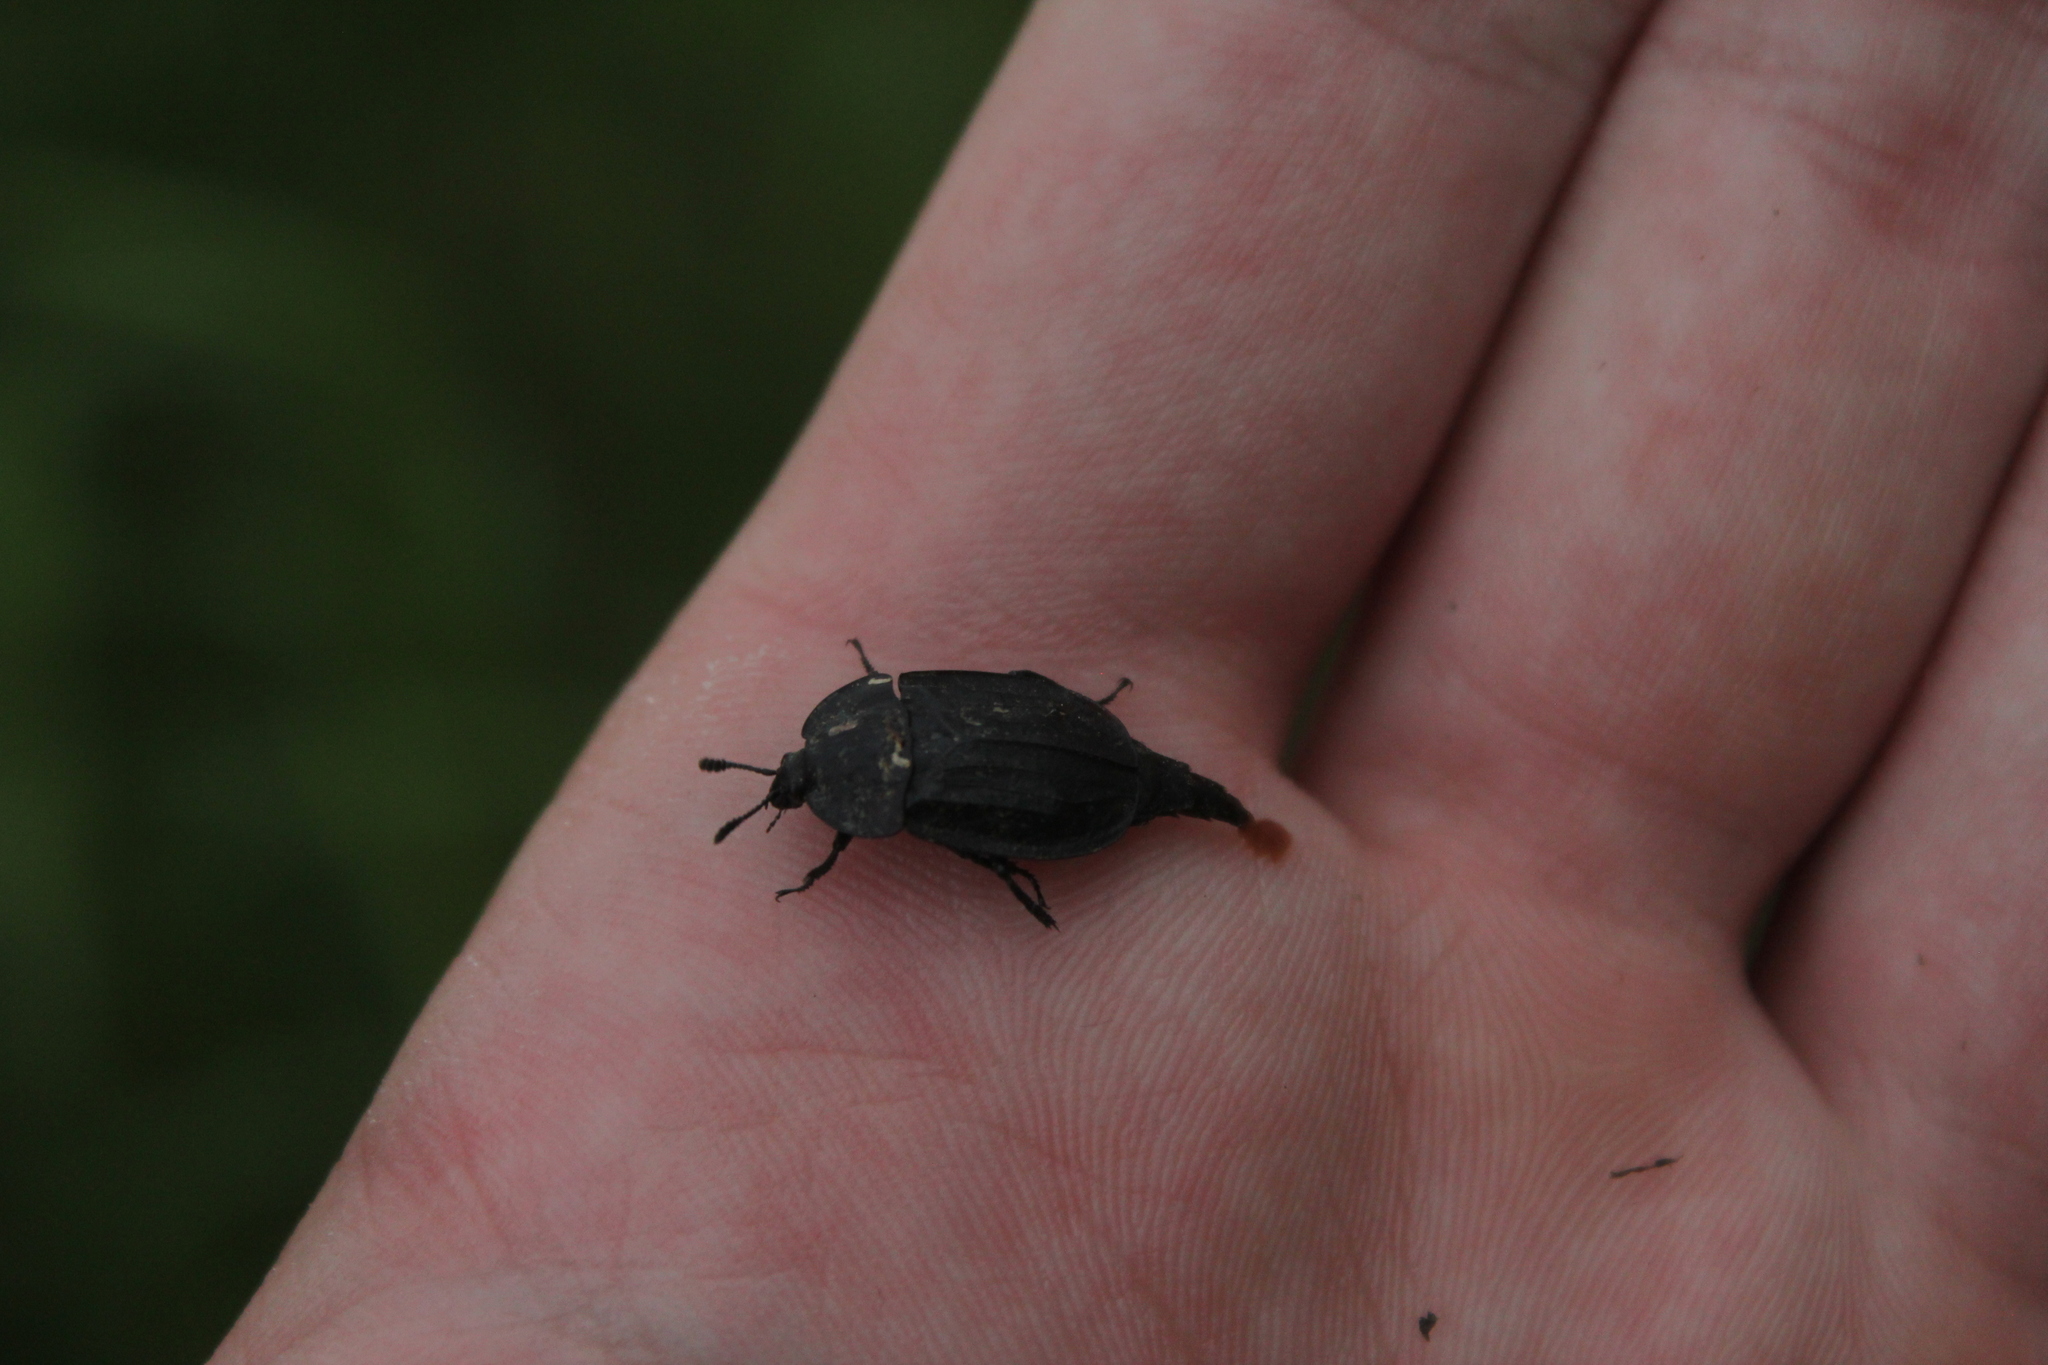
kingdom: Animalia
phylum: Arthropoda
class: Insecta
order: Coleoptera
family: Staphylinidae
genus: Oiceoptoma
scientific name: Oiceoptoma inaequale
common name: Ridged carrion beetle
